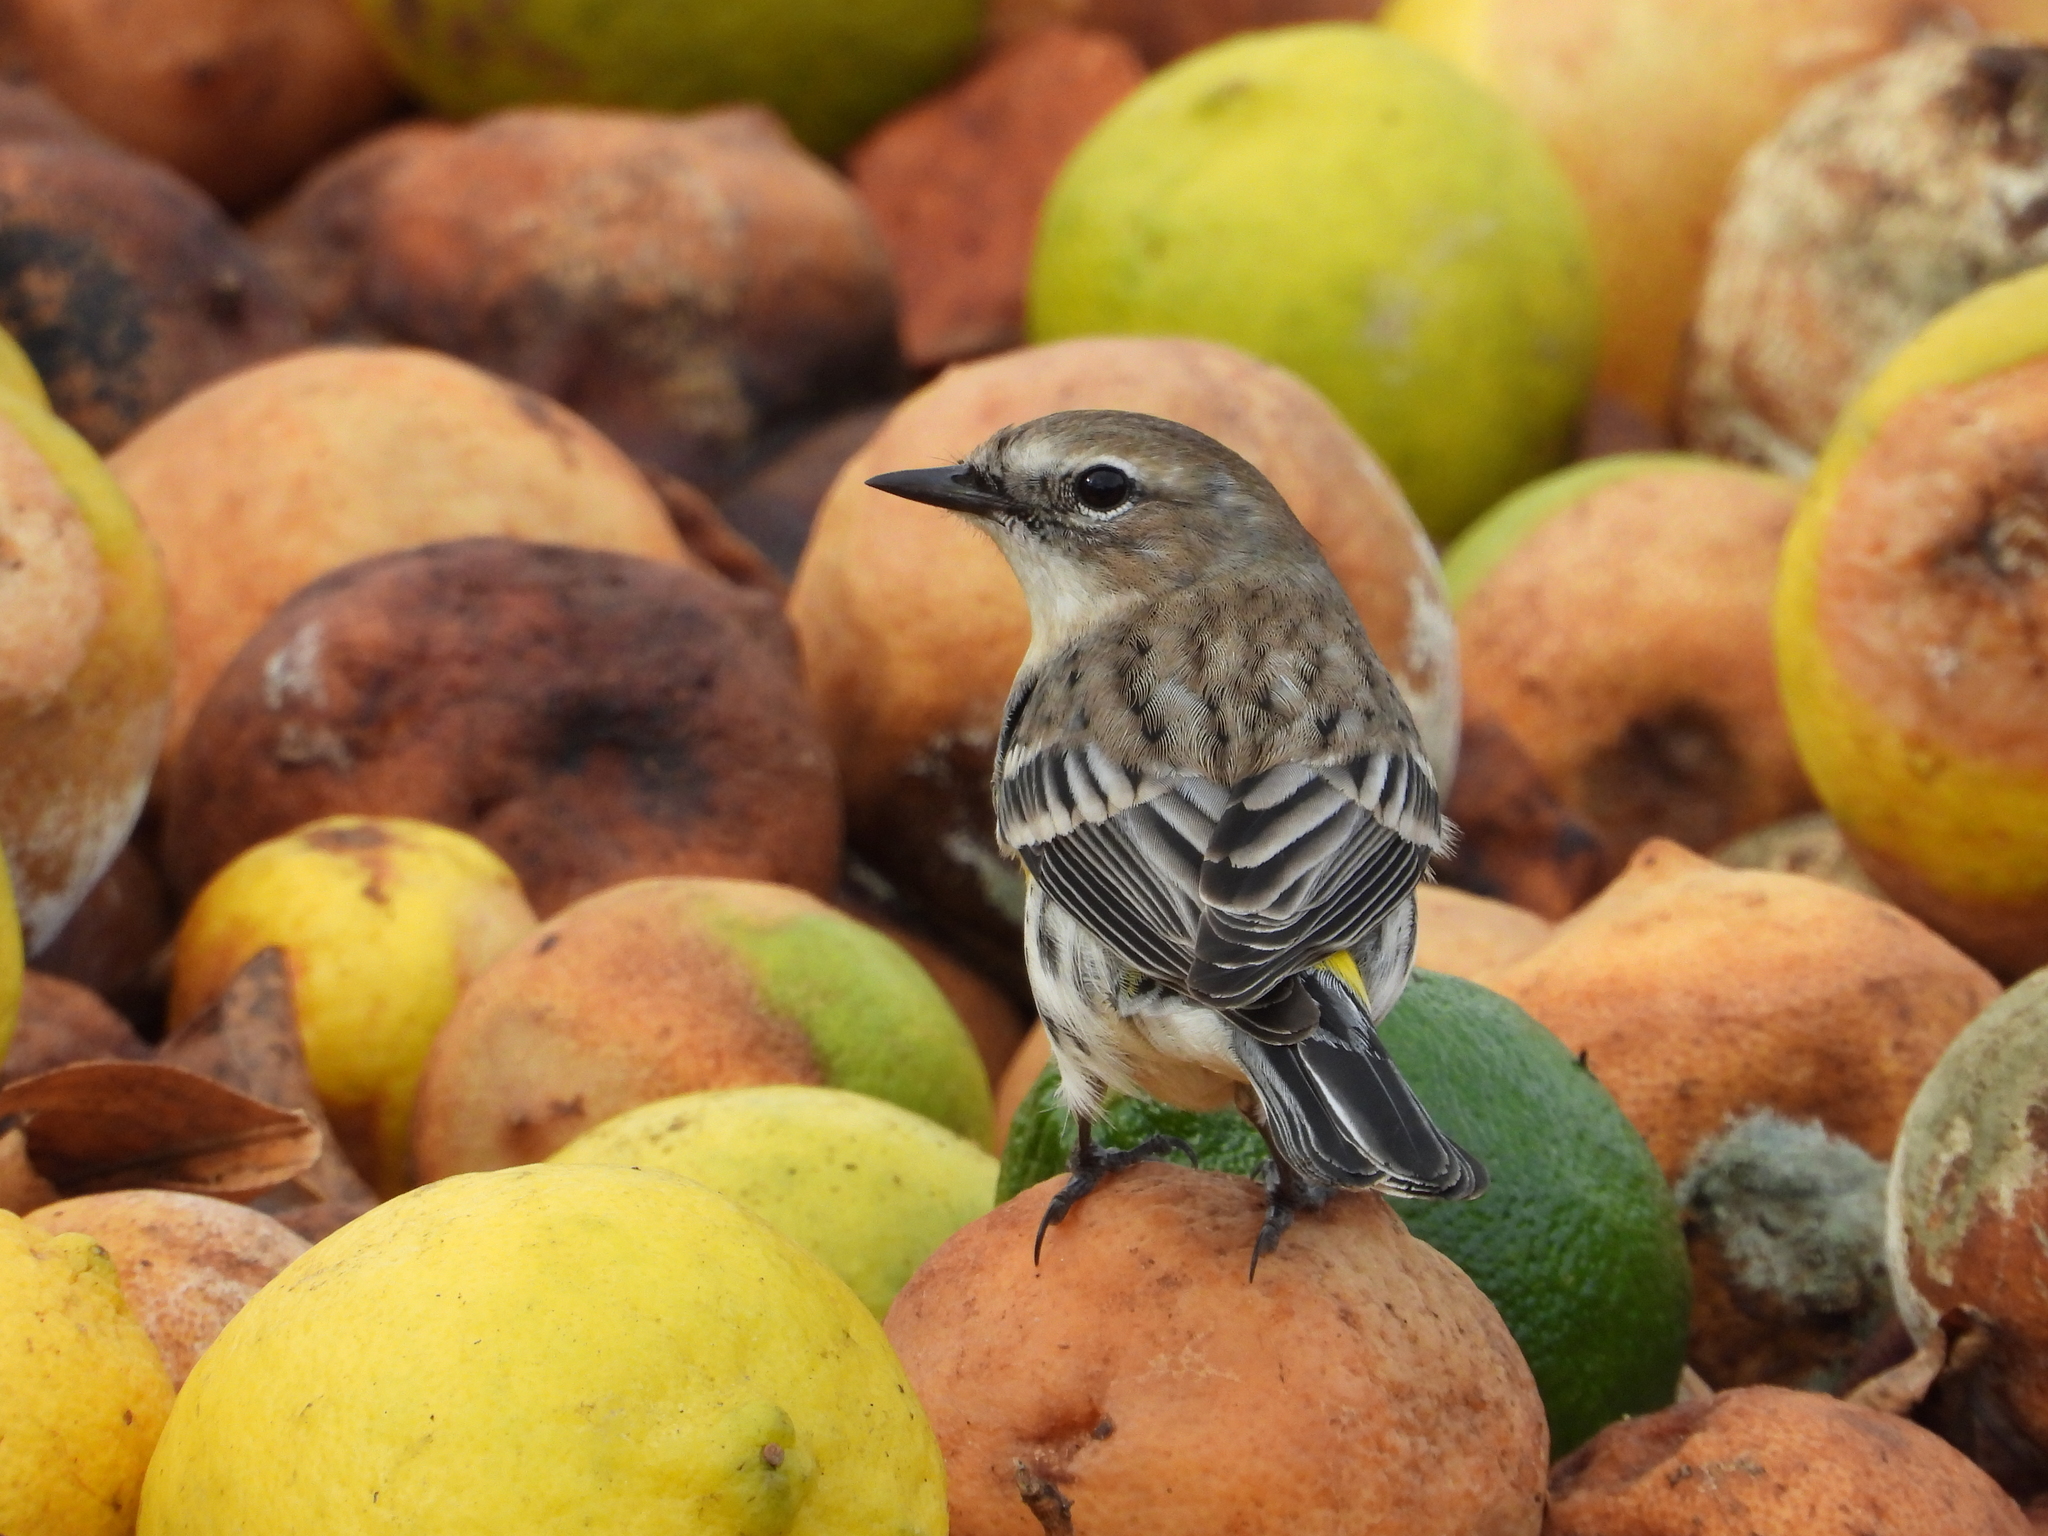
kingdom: Animalia
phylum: Chordata
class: Aves
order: Passeriformes
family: Parulidae
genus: Setophaga
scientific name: Setophaga coronata
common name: Myrtle warbler
